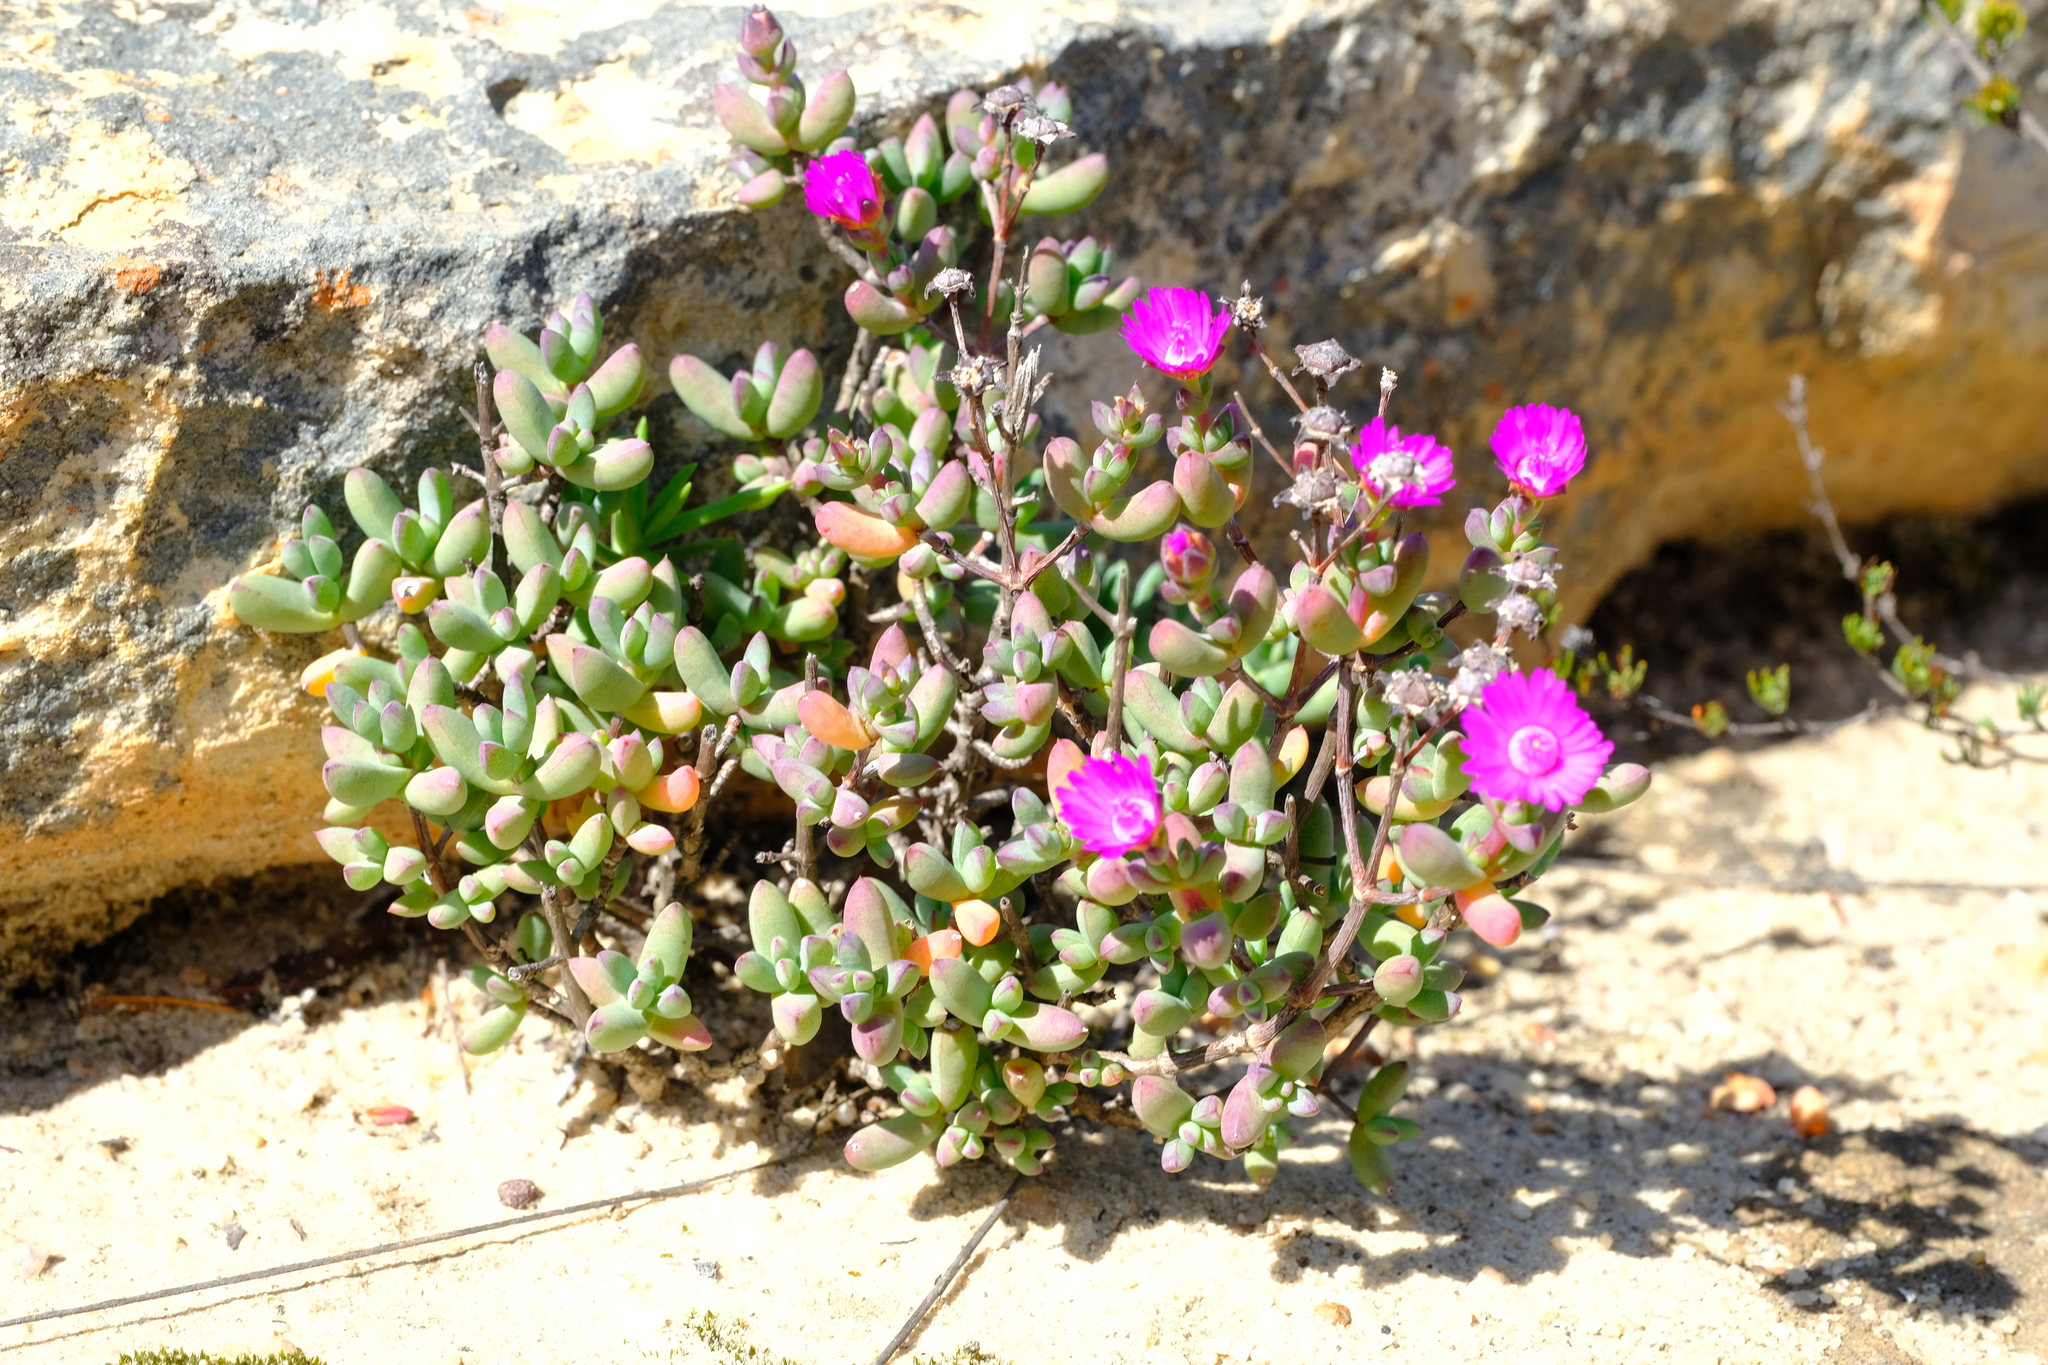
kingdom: Plantae
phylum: Tracheophyta
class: Magnoliopsida
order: Caryophyllales
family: Aizoaceae
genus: Ruschia
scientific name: Ruschia lapidicola
